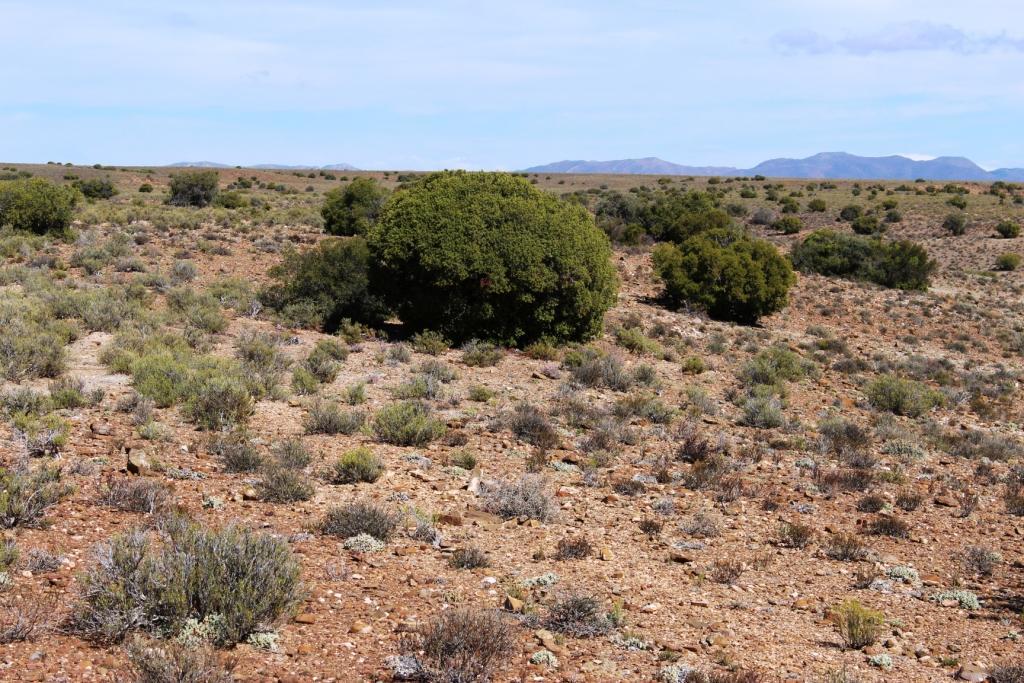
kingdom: Plantae
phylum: Tracheophyta
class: Magnoliopsida
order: Ericales
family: Ebenaceae
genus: Euclea
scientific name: Euclea undulata
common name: Small-leaved guarri
